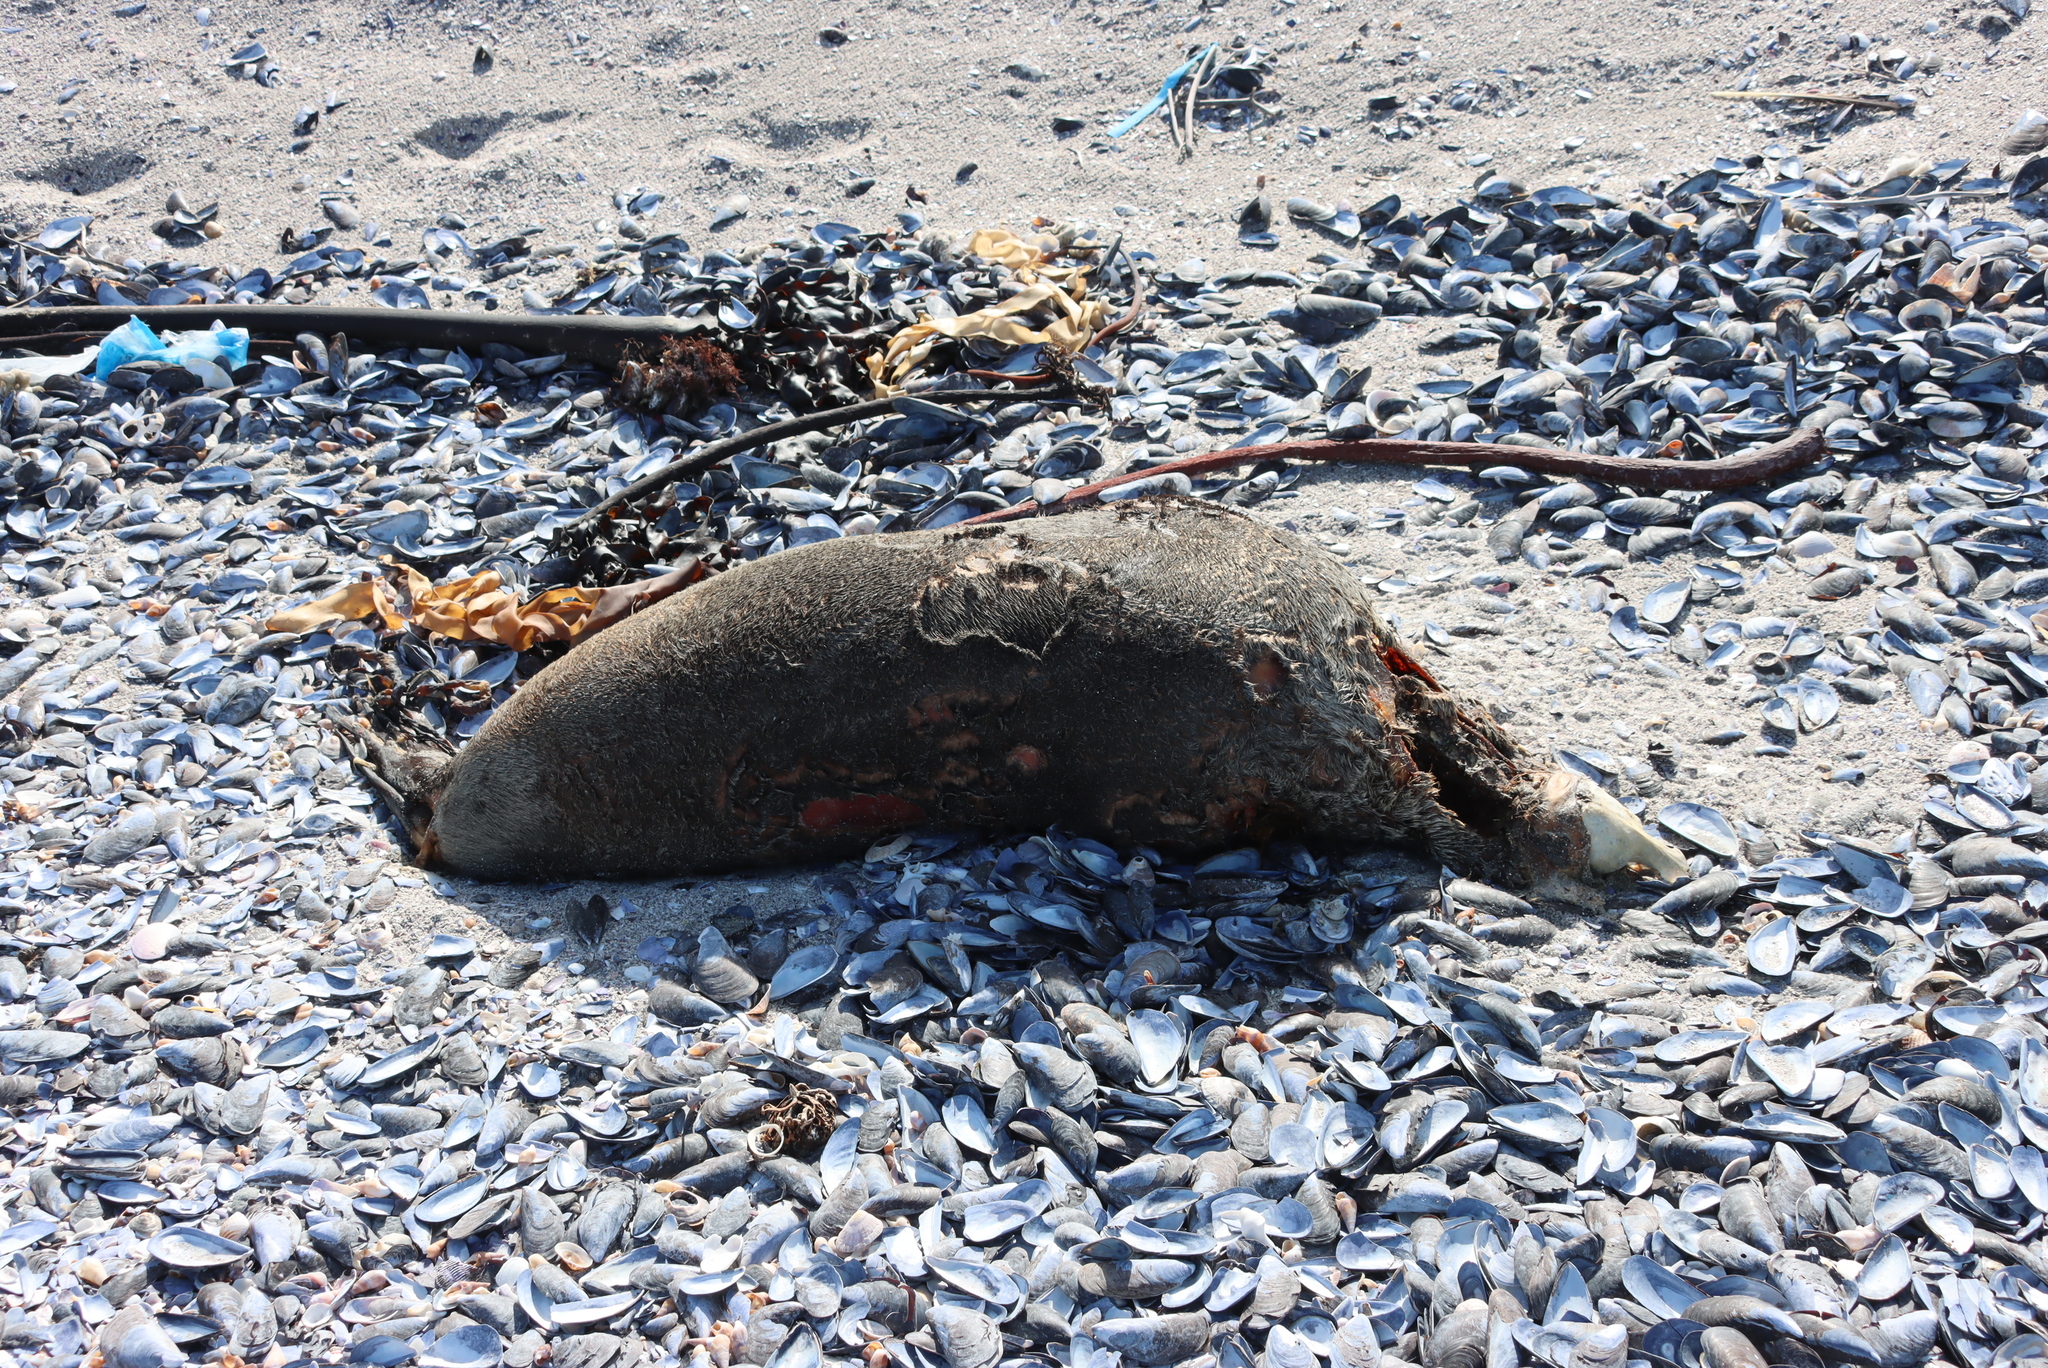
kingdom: Animalia
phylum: Chordata
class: Mammalia
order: Carnivora
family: Otariidae
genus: Arctocephalus
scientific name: Arctocephalus pusillus
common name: Brown fur seal
